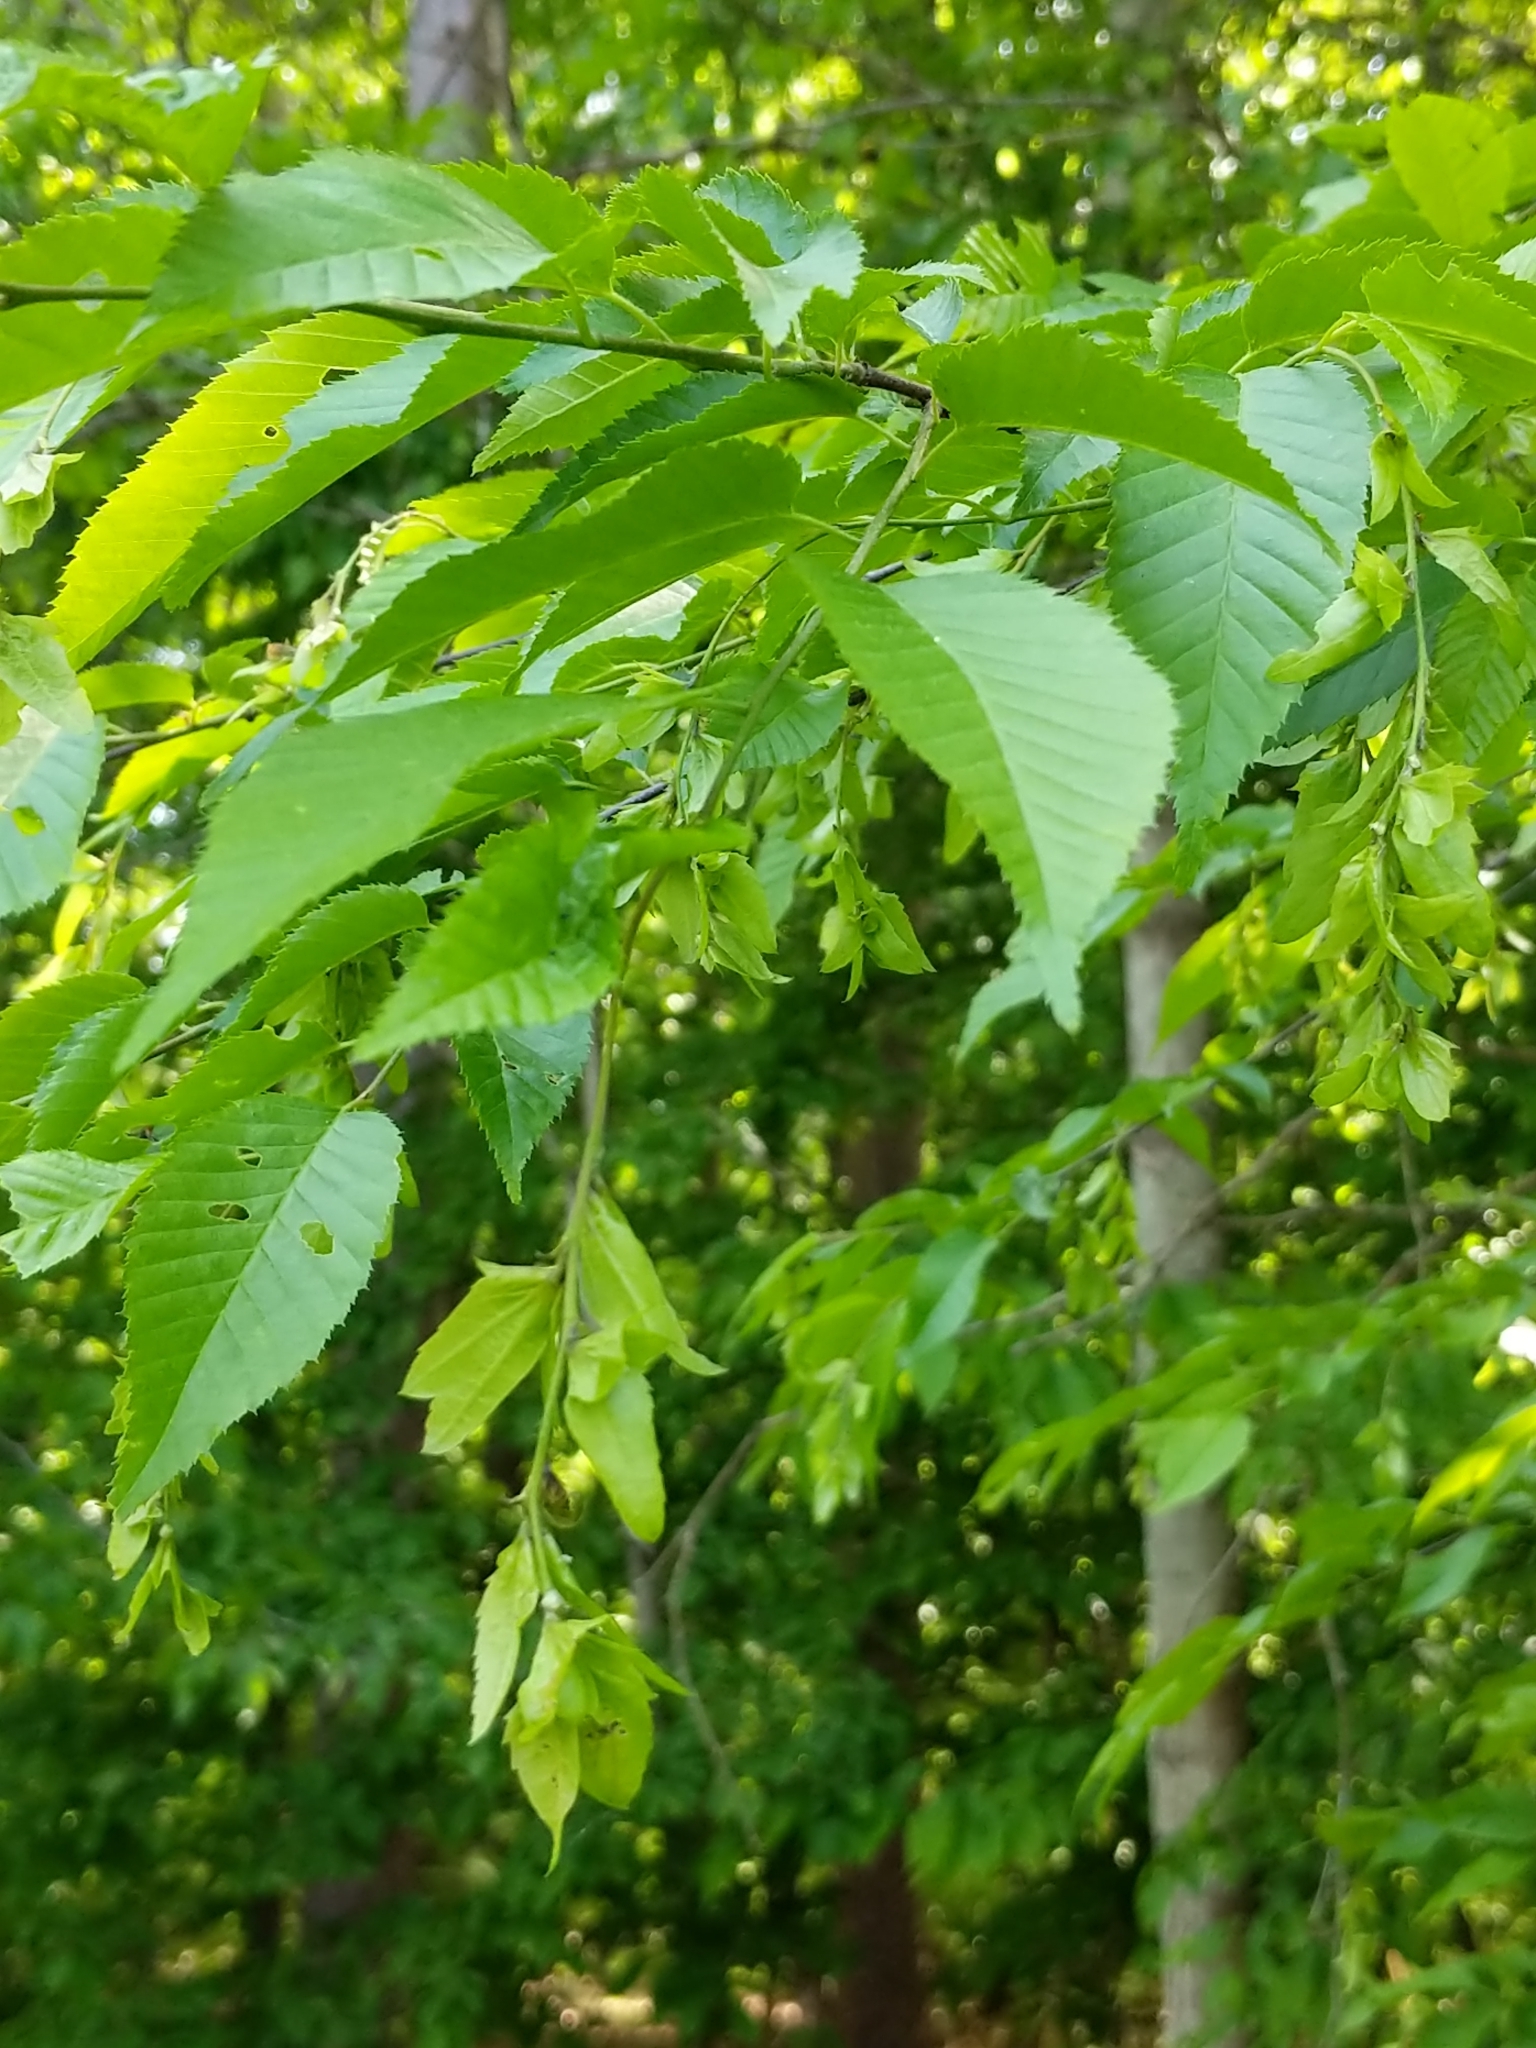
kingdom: Plantae
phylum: Tracheophyta
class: Magnoliopsida
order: Fagales
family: Betulaceae
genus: Carpinus
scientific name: Carpinus caroliniana
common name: American hornbeam
